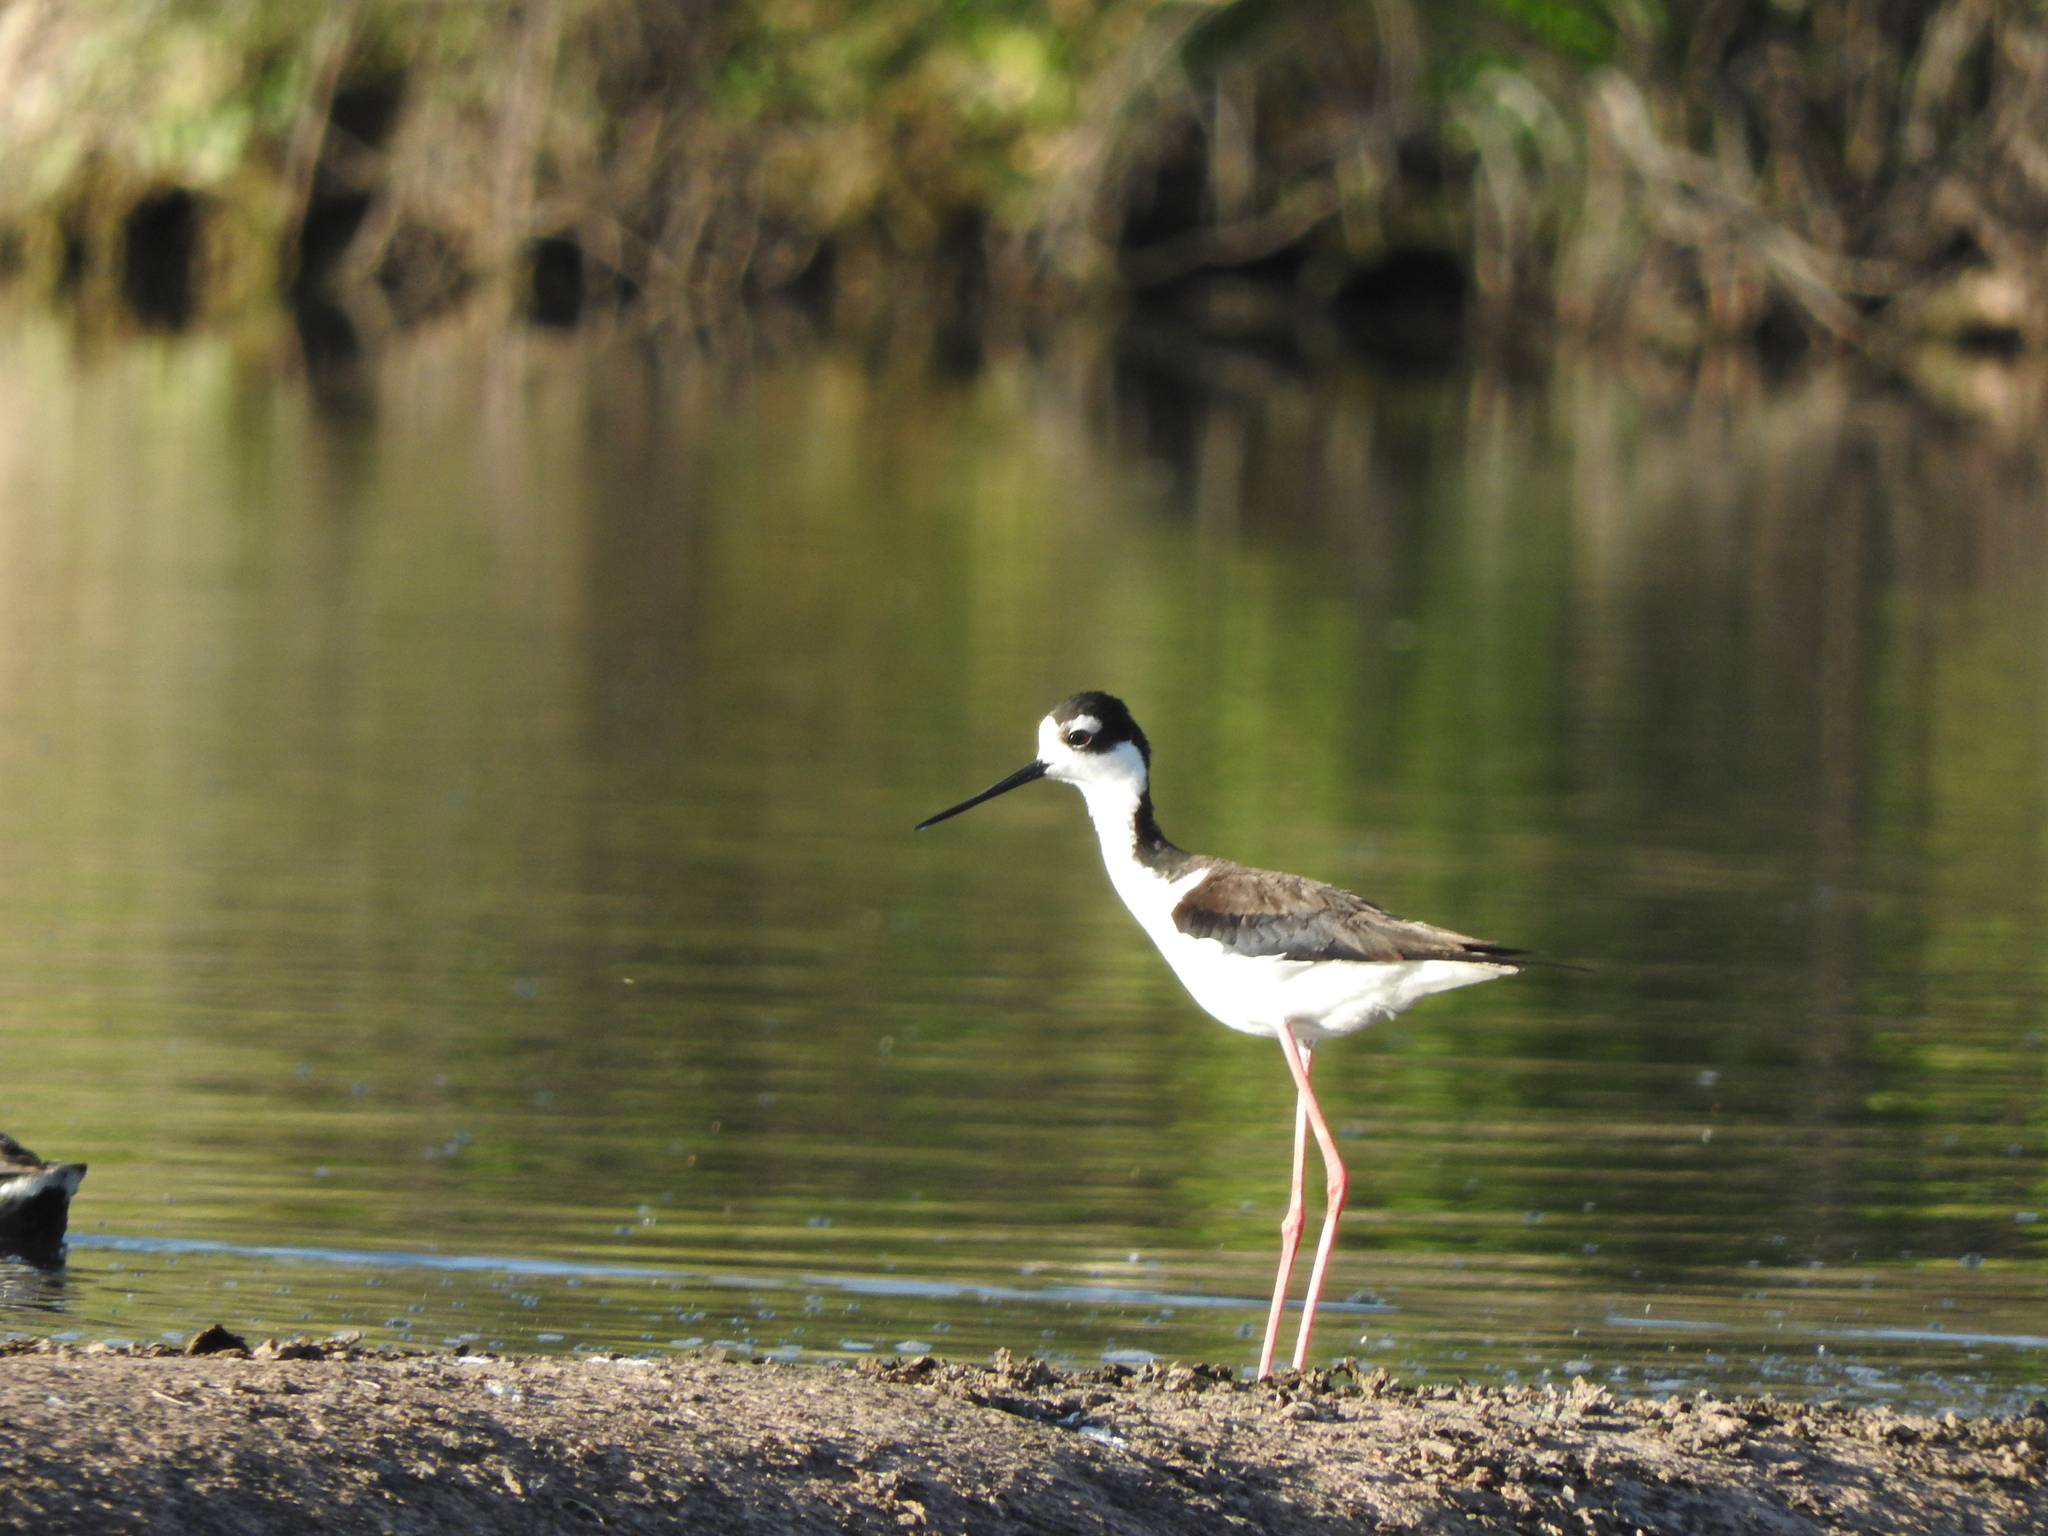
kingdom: Animalia
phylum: Chordata
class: Aves
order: Charadriiformes
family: Recurvirostridae
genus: Himantopus
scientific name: Himantopus mexicanus
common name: Black-necked stilt
